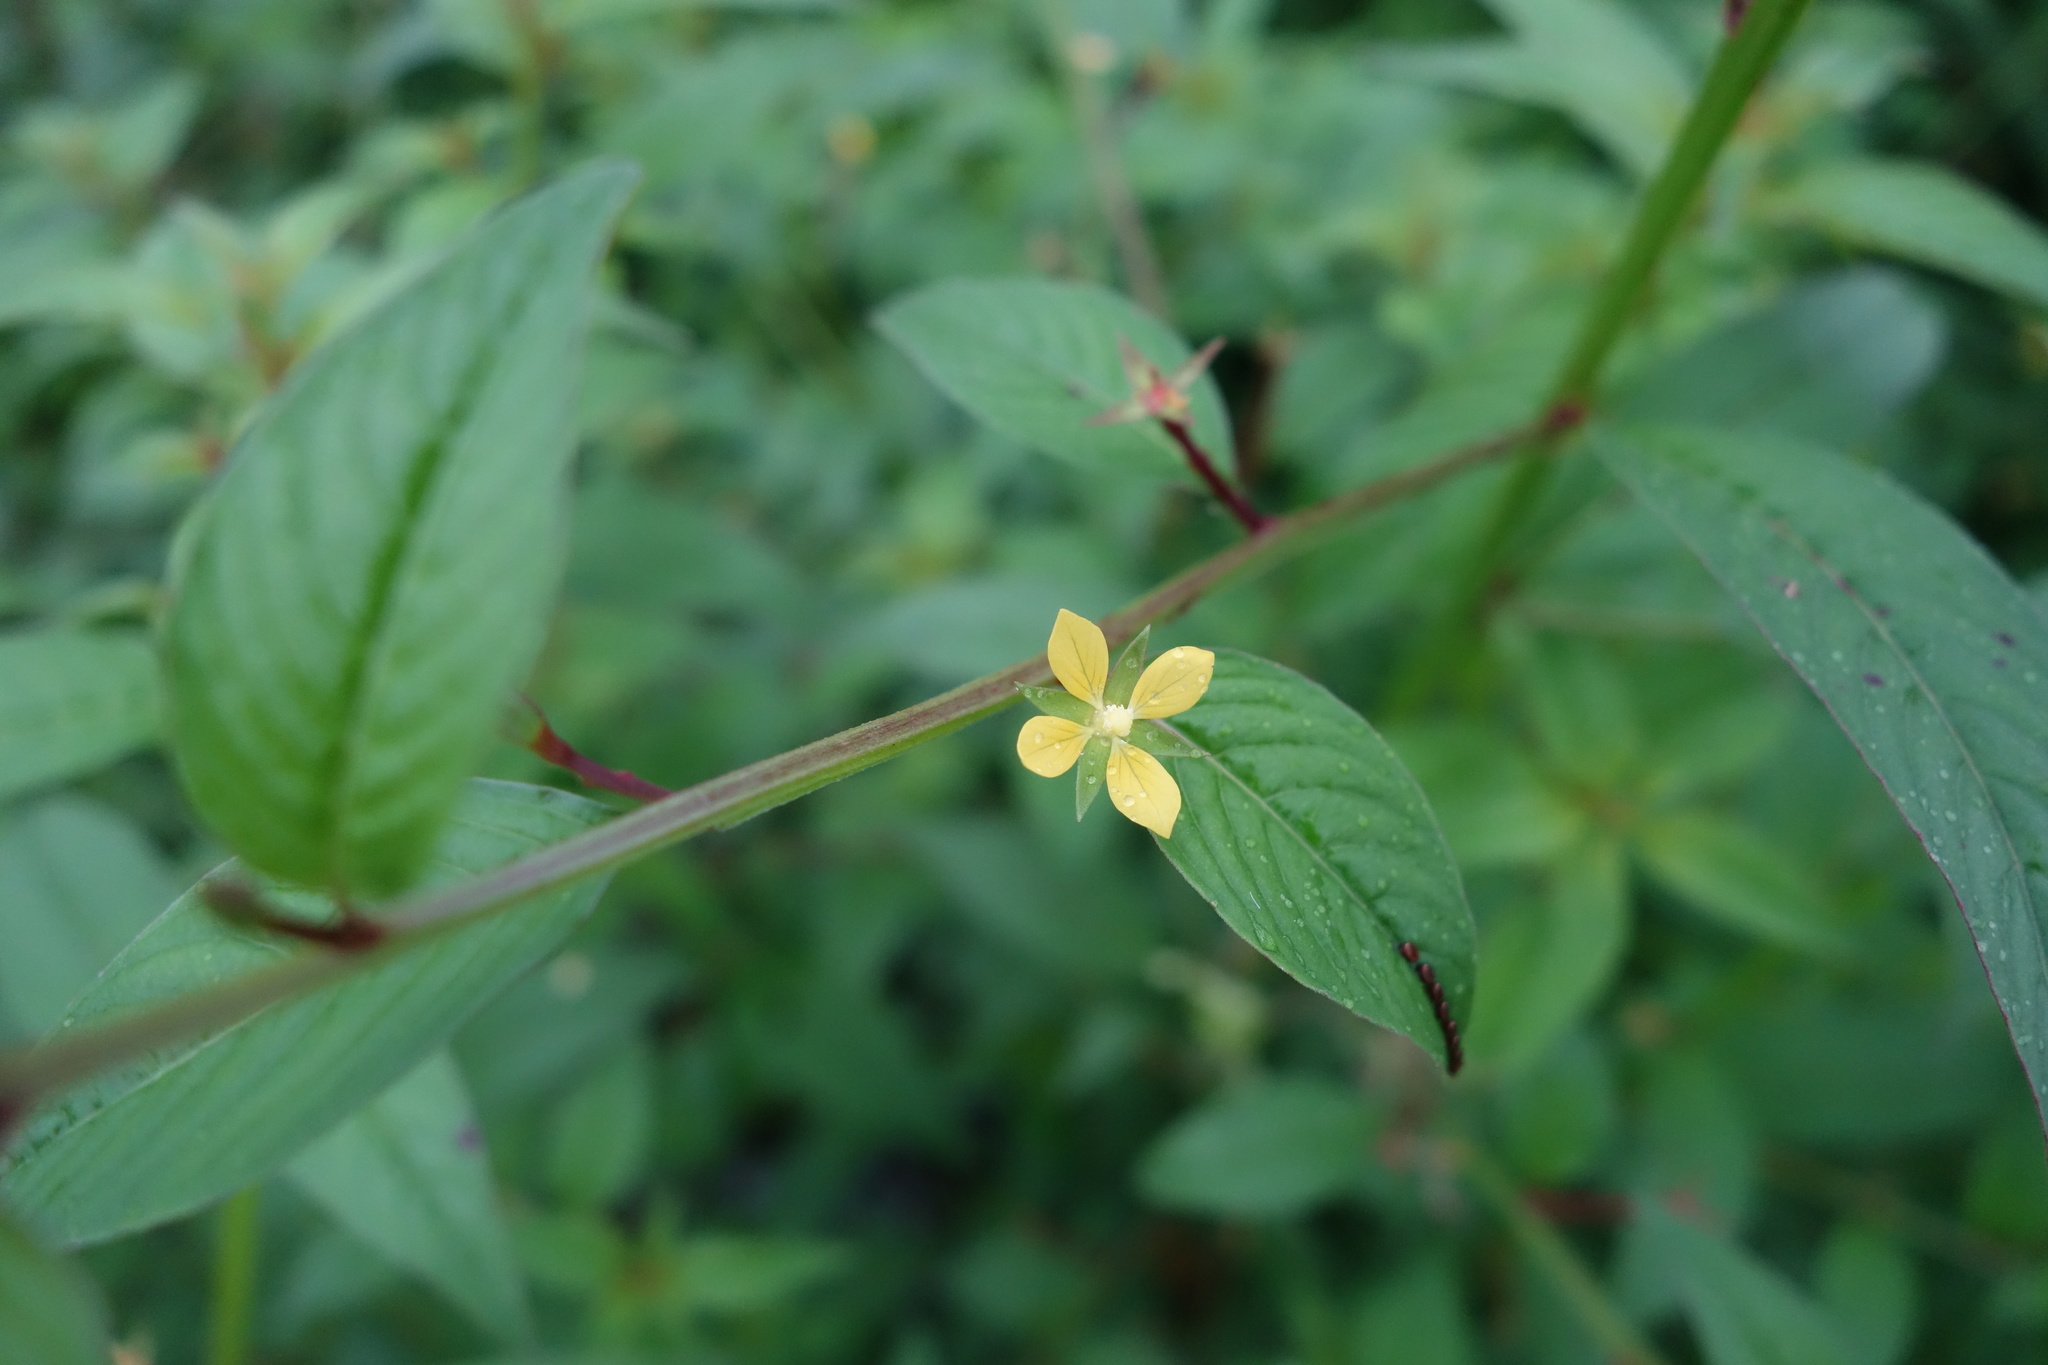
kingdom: Plantae
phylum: Tracheophyta
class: Magnoliopsida
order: Myrtales
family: Onagraceae
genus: Ludwigia
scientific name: Ludwigia hyssopifolia
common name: Linear leaf water primrose
